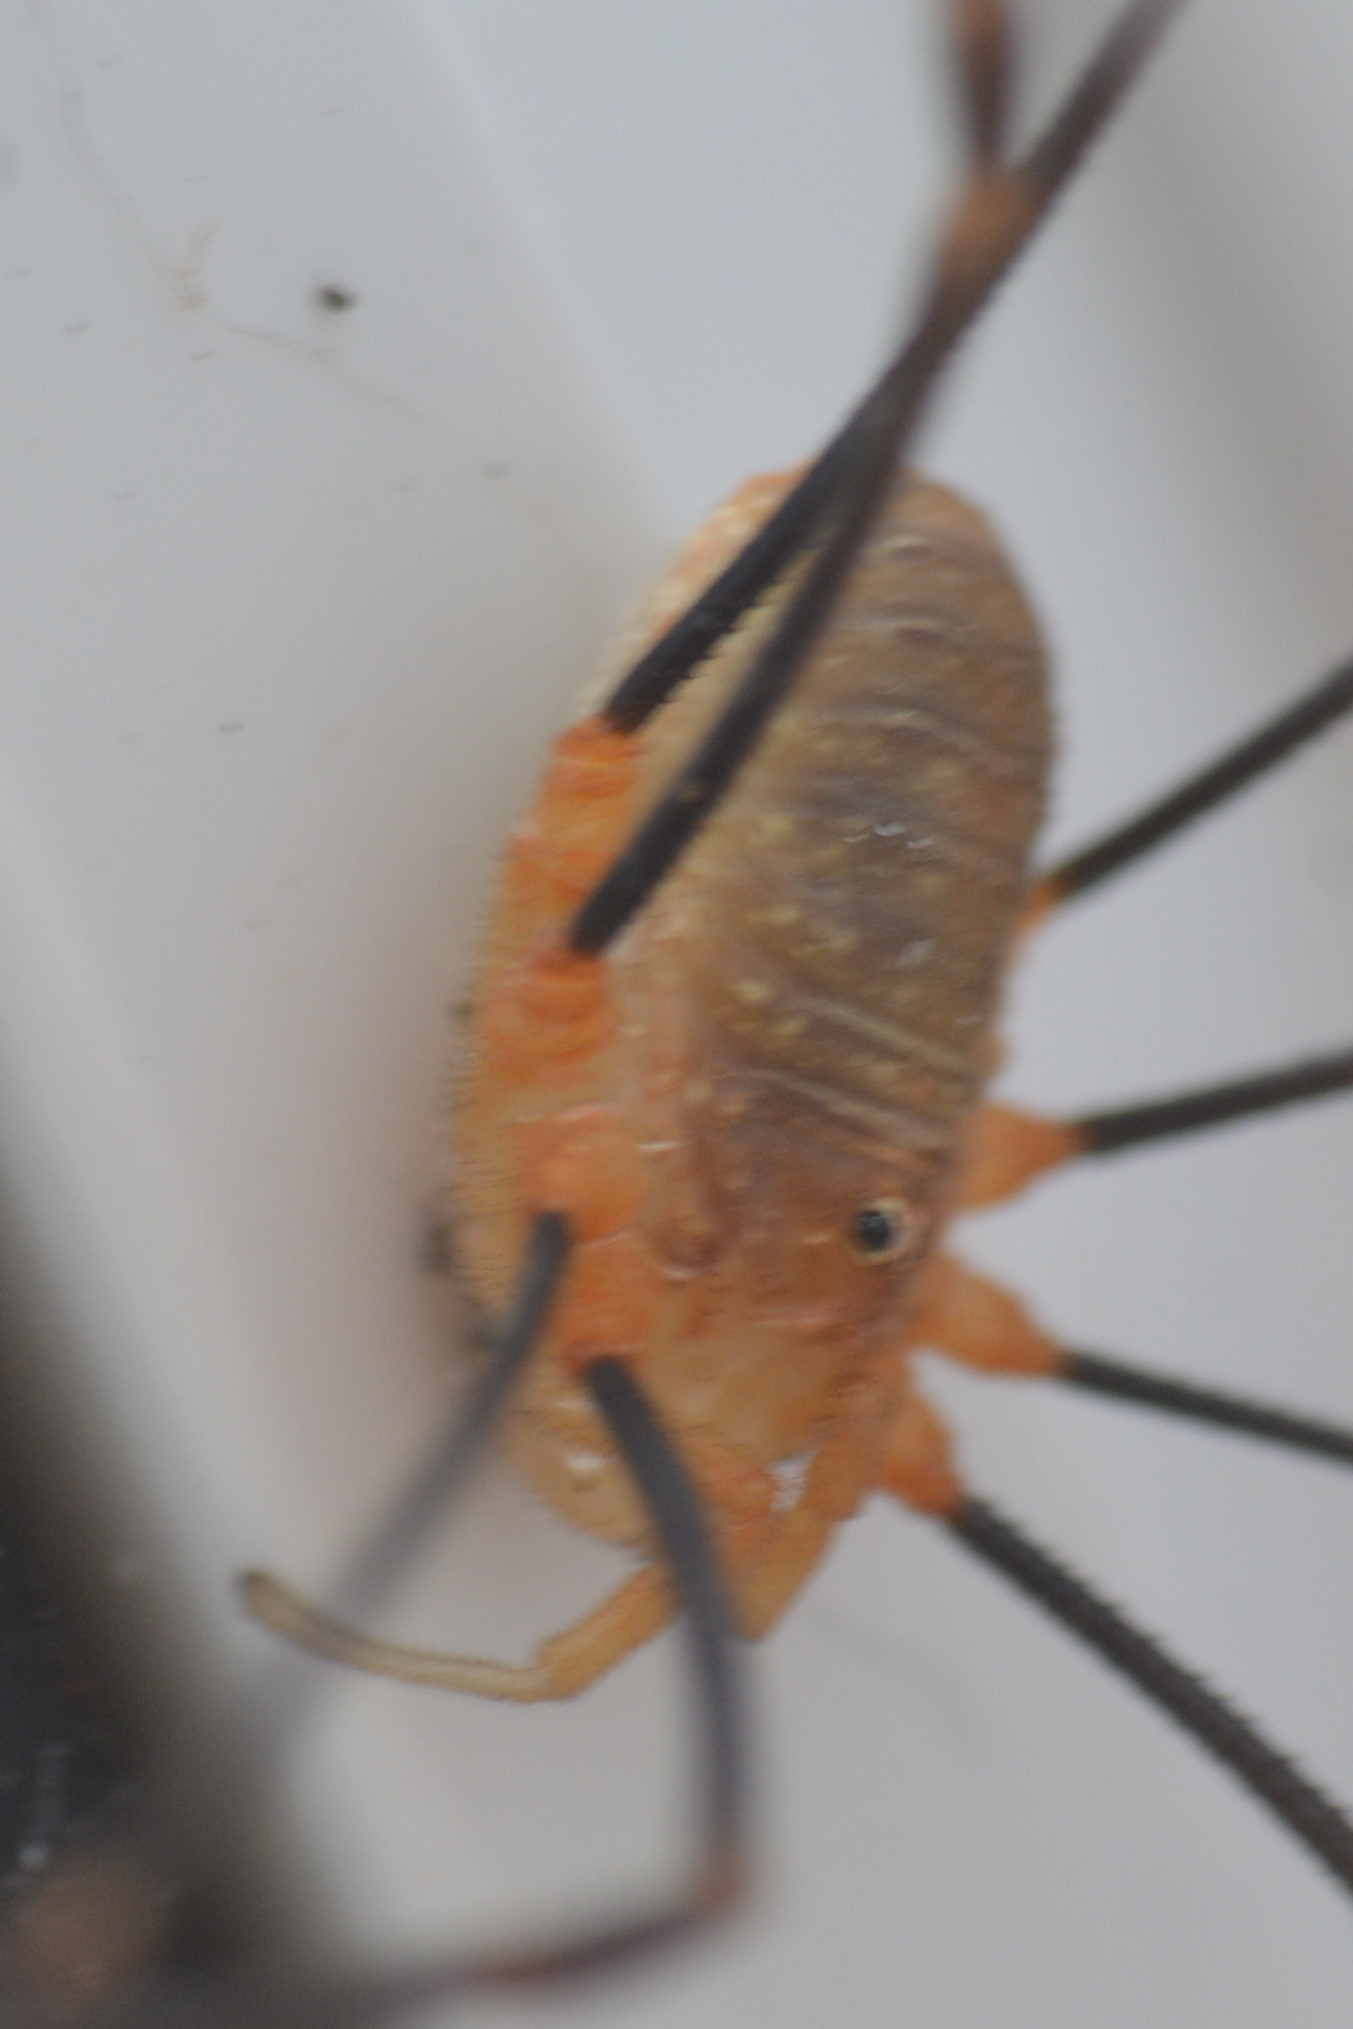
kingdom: Animalia
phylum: Arthropoda
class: Arachnida
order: Opiliones
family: Phalangiidae
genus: Opilio
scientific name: Opilio canestrinii
